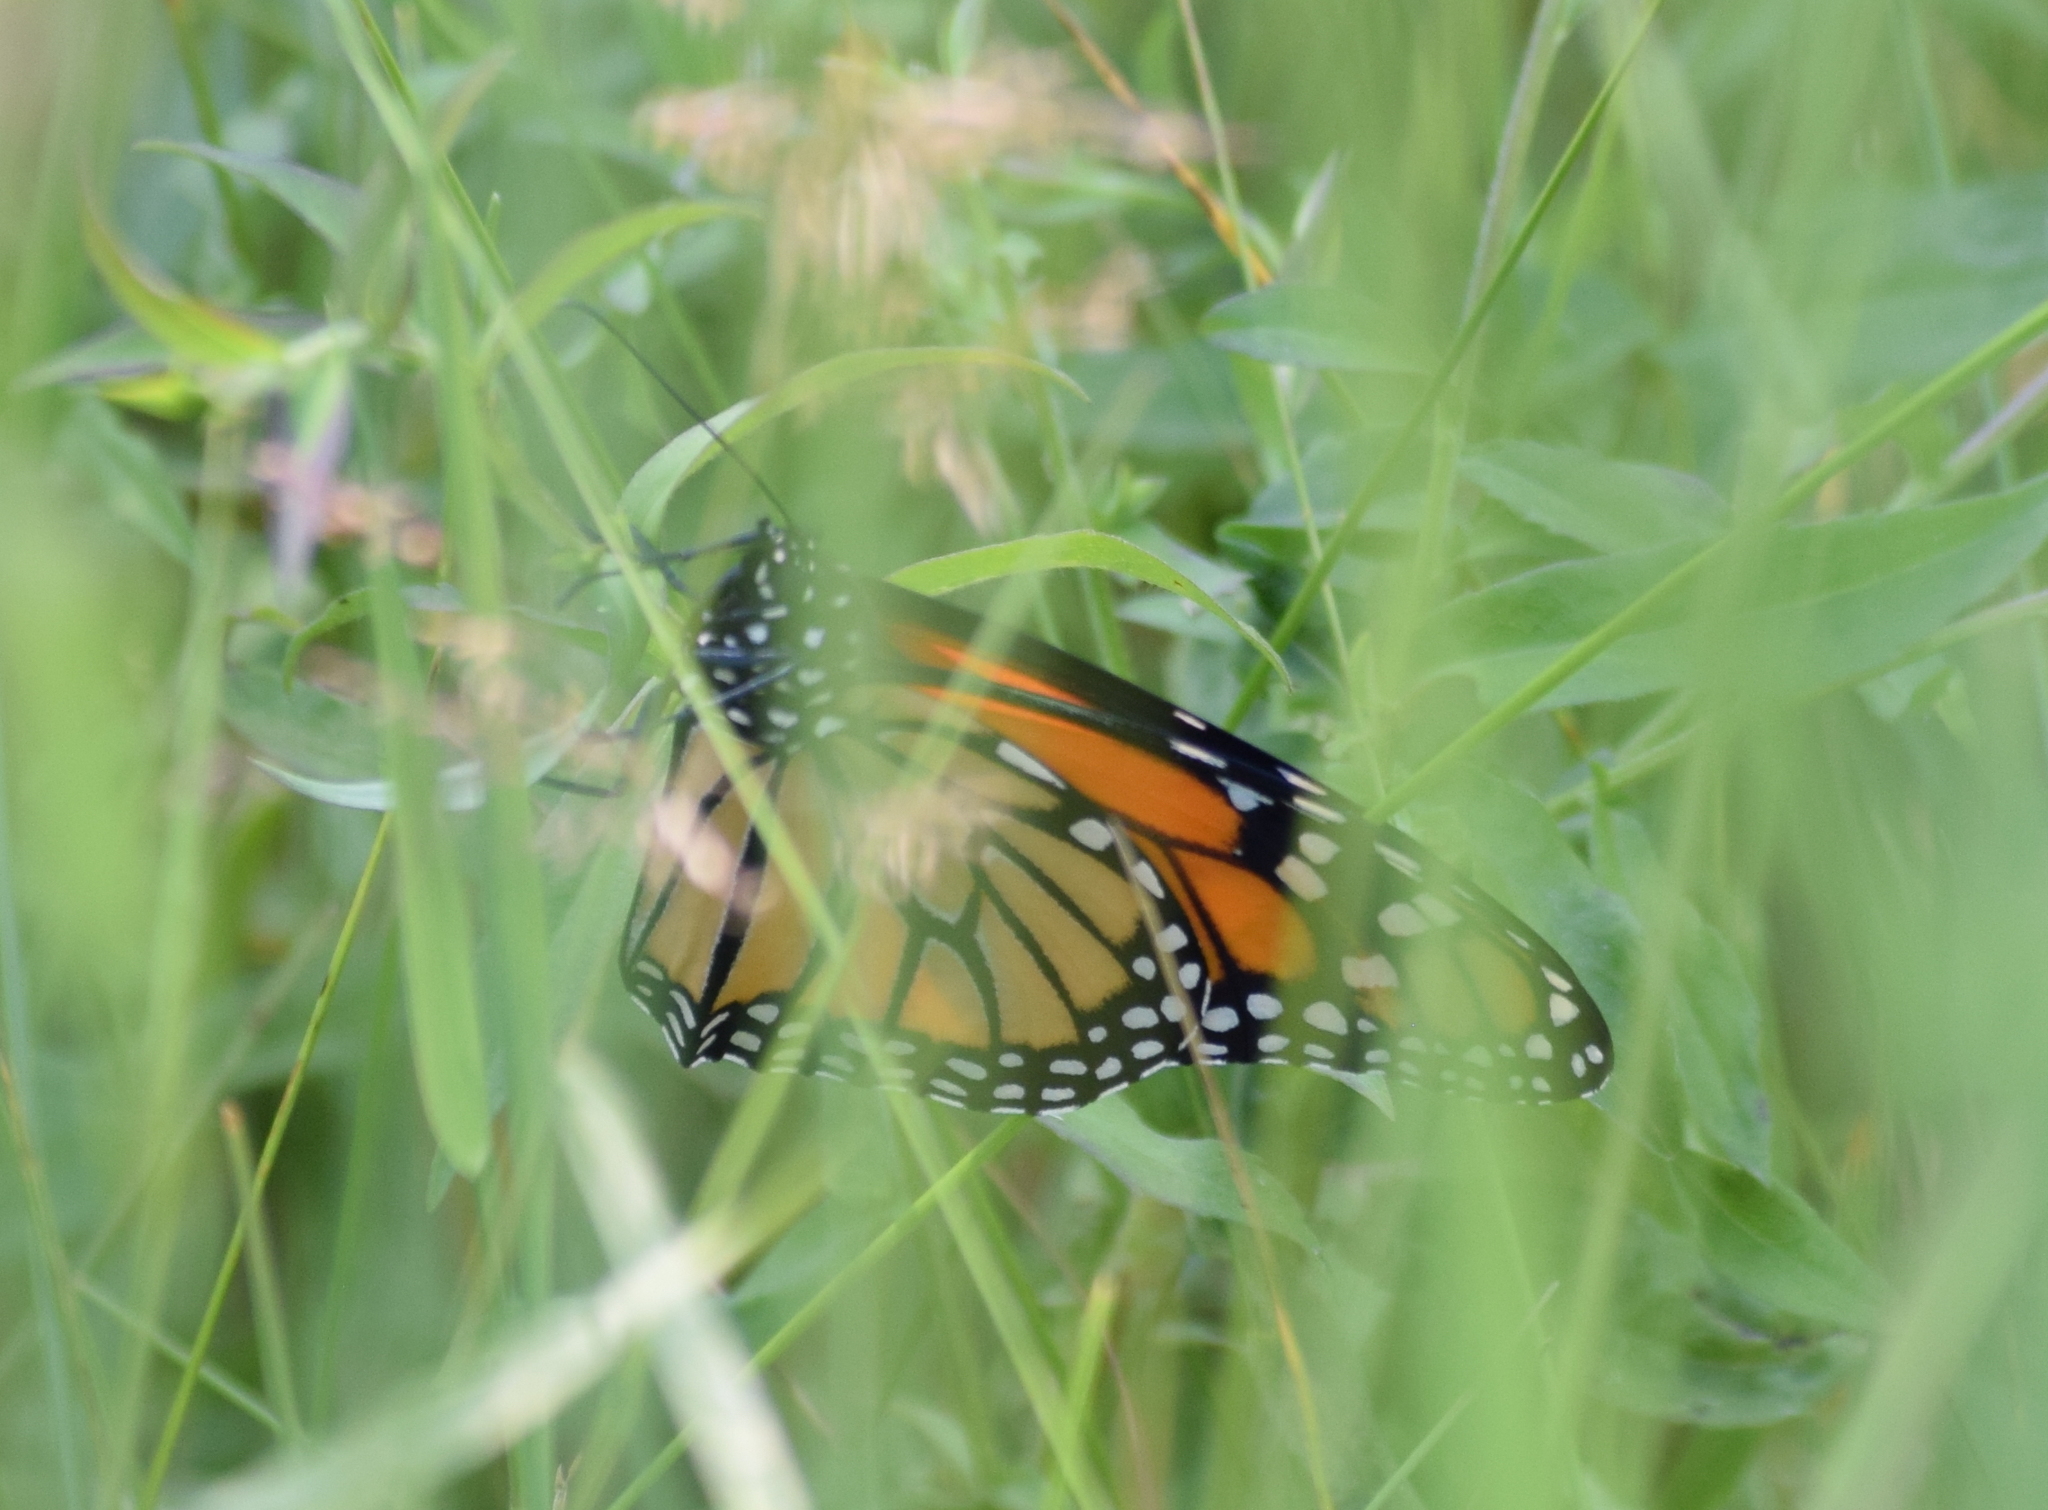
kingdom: Animalia
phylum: Arthropoda
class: Insecta
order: Lepidoptera
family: Nymphalidae
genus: Danaus
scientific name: Danaus plexippus
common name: Monarch
